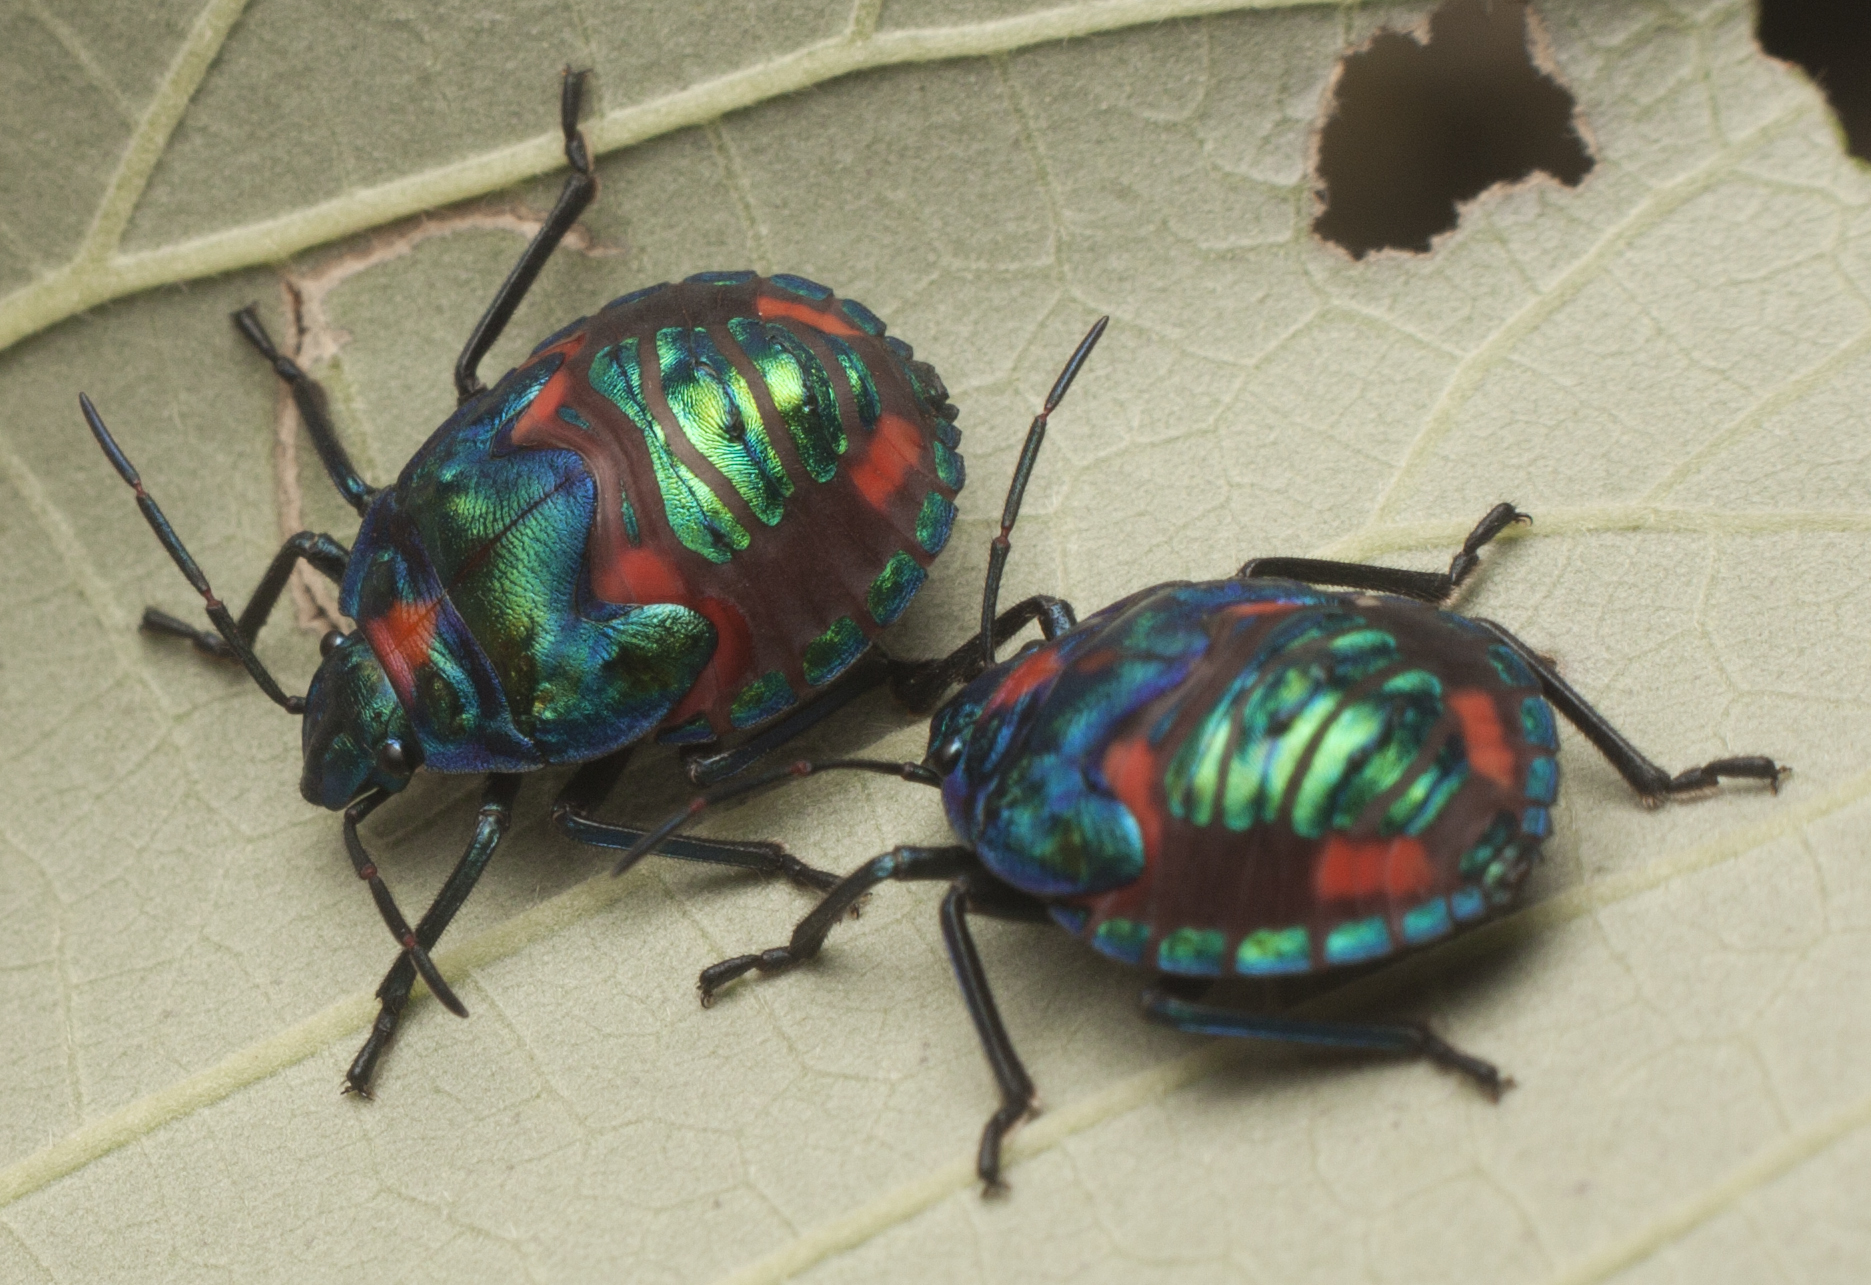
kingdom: Animalia
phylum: Arthropoda
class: Insecta
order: Hemiptera
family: Scutelleridae
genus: Tectocoris
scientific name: Tectocoris diophthalmus
